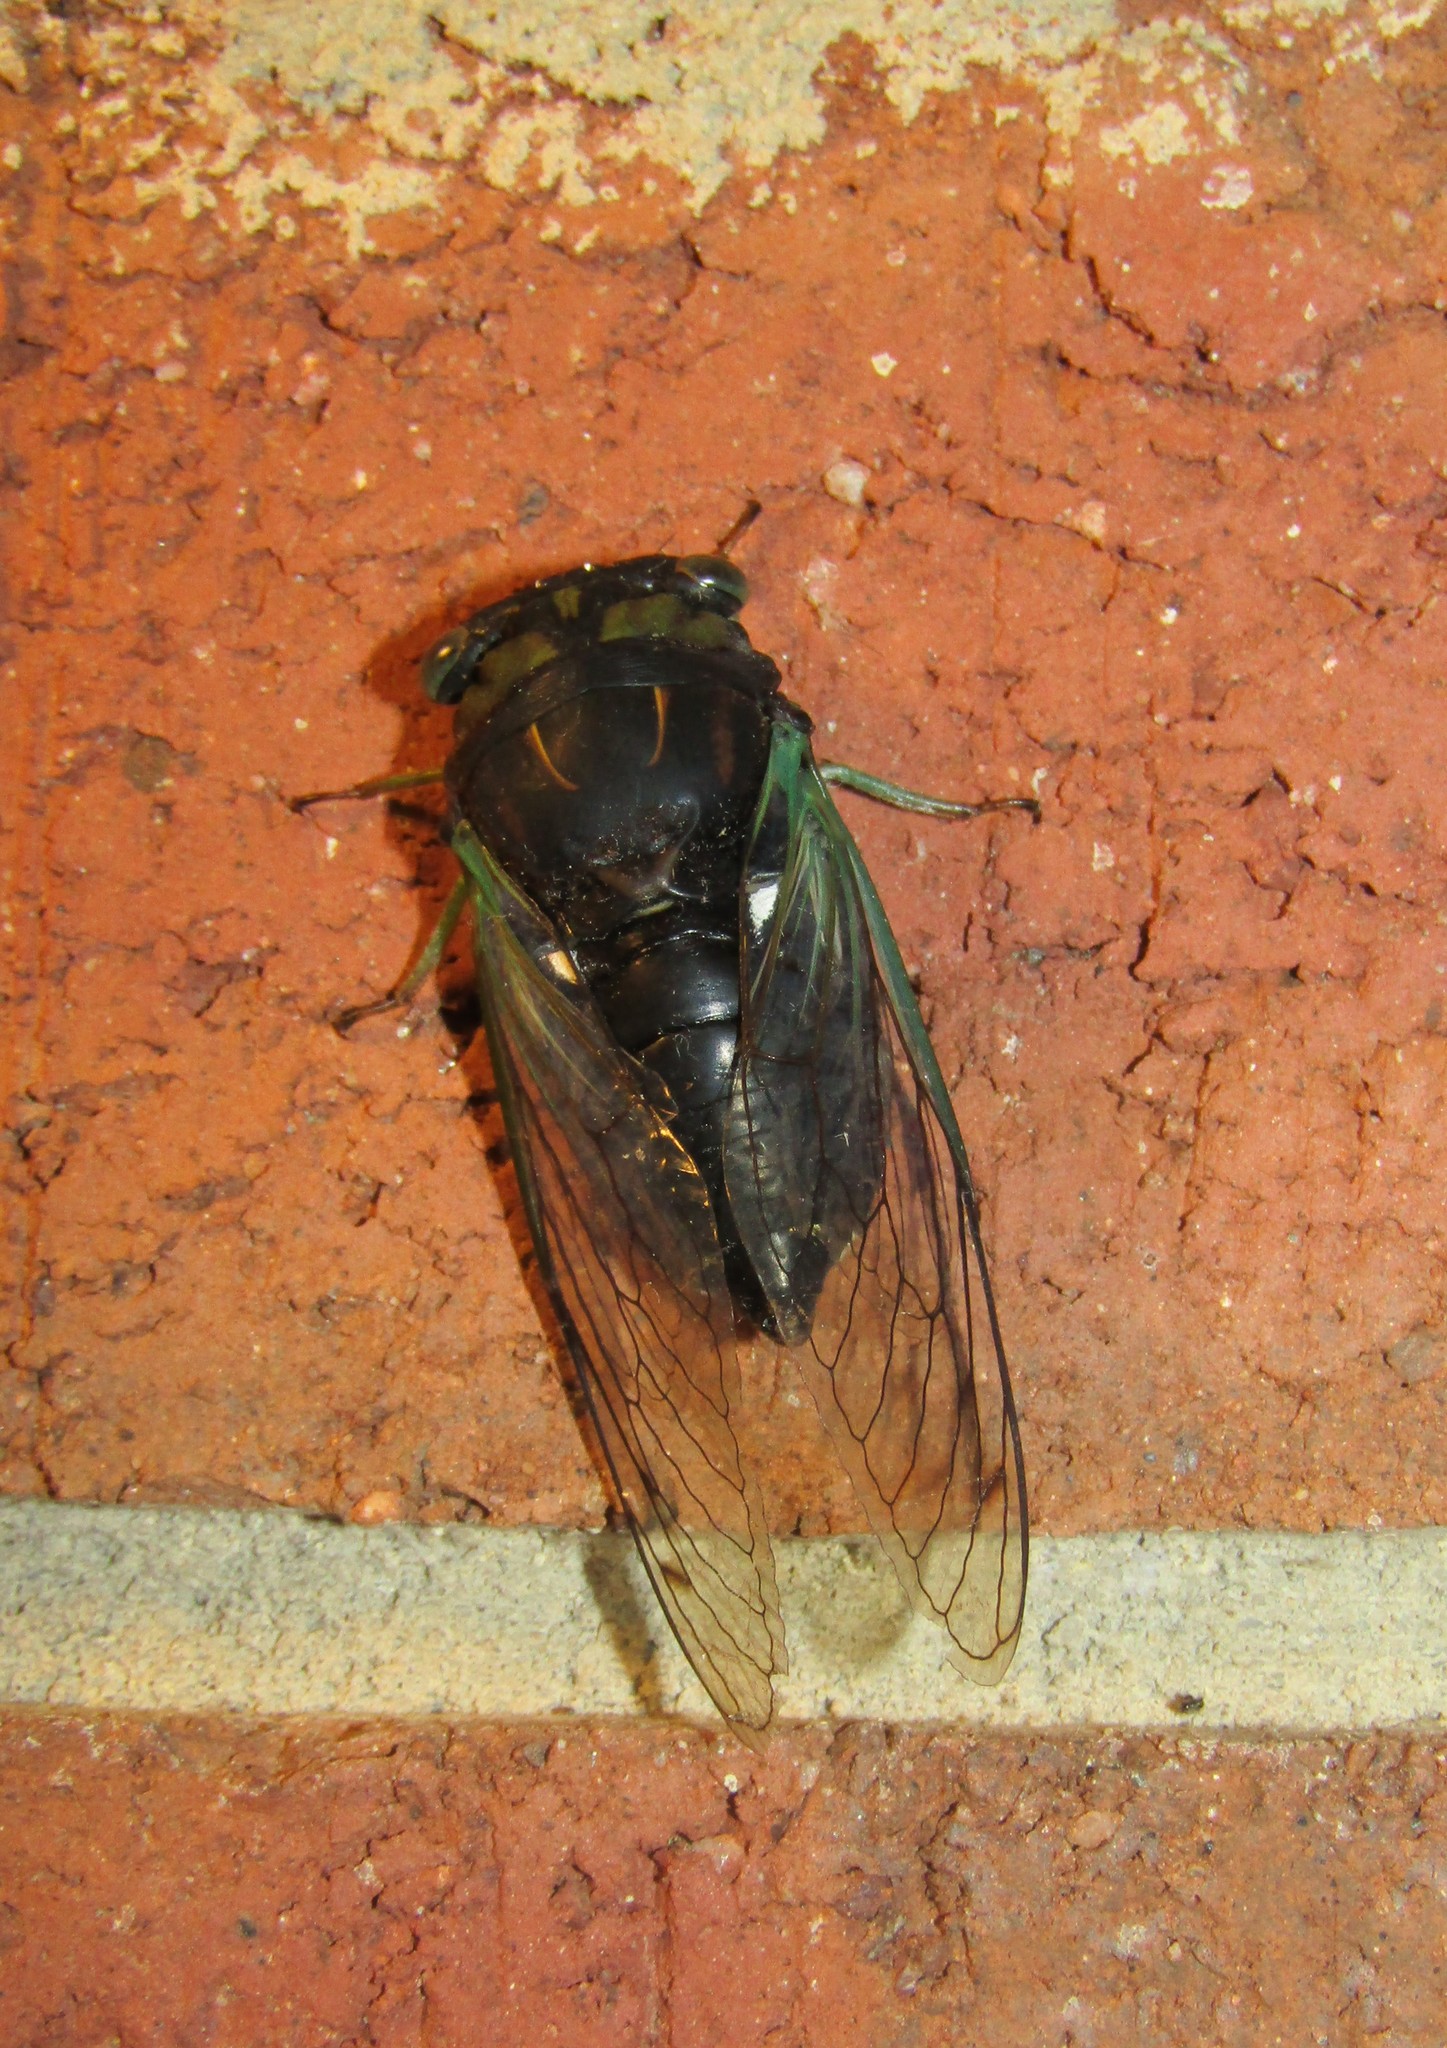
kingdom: Animalia
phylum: Arthropoda
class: Insecta
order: Hemiptera
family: Cicadidae
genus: Neotibicen
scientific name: Neotibicen tibicen
